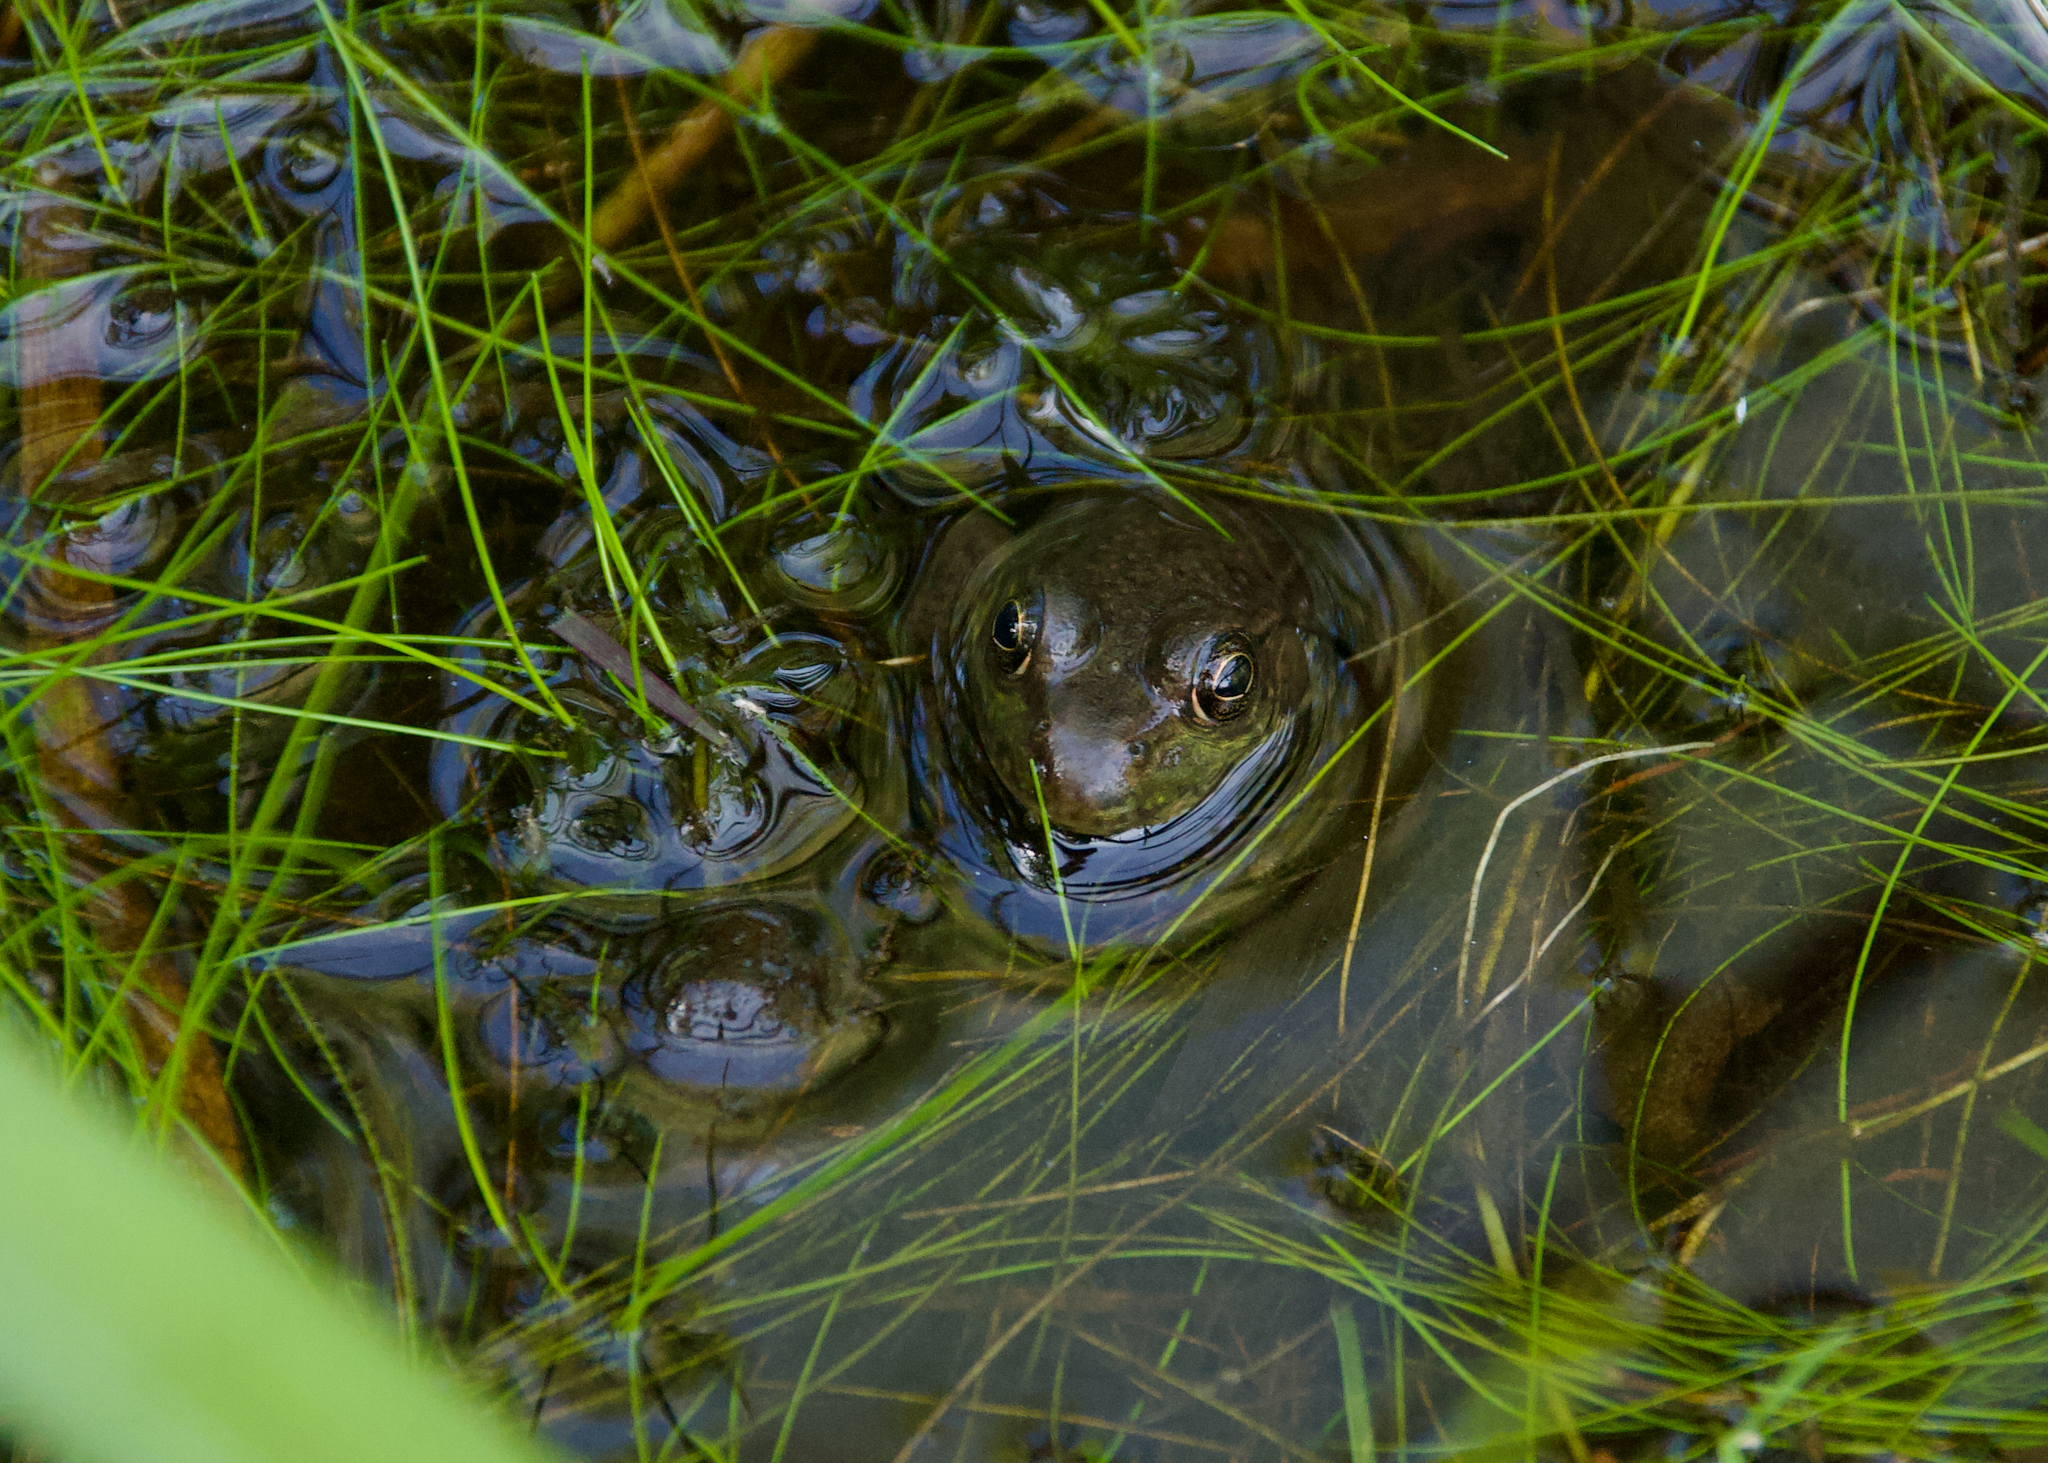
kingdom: Animalia
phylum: Chordata
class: Amphibia
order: Anura
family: Ranidae
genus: Lithobates
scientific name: Lithobates clamitans
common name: Green frog
